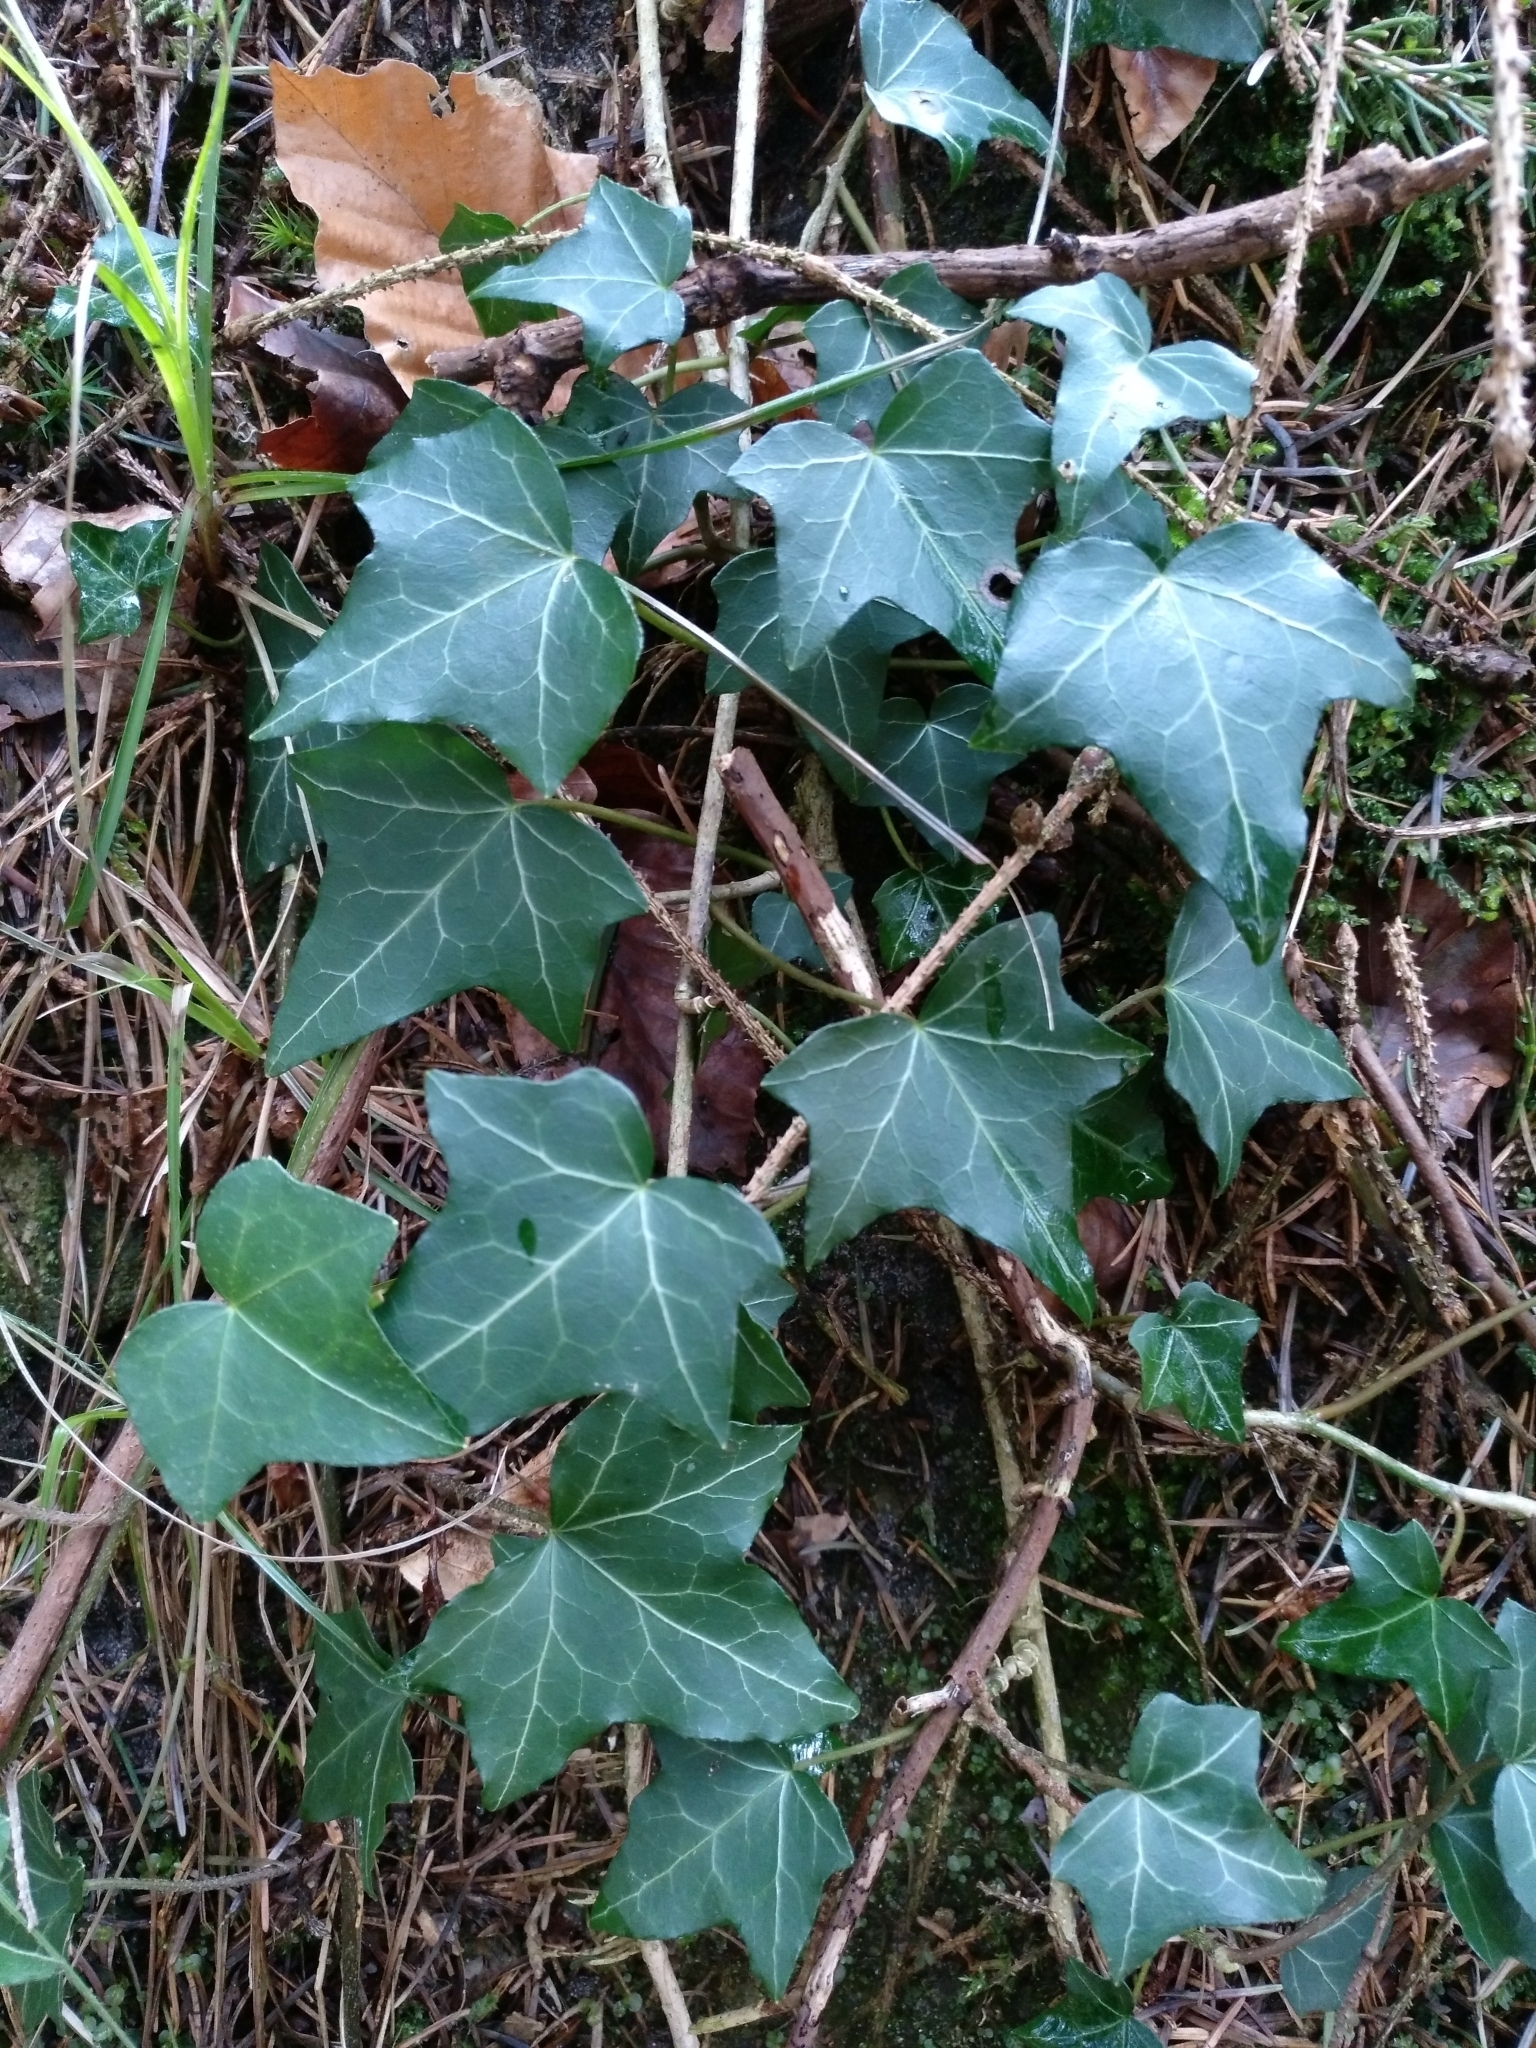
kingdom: Plantae
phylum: Tracheophyta
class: Magnoliopsida
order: Apiales
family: Araliaceae
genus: Hedera
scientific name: Hedera helix
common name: Ivy
